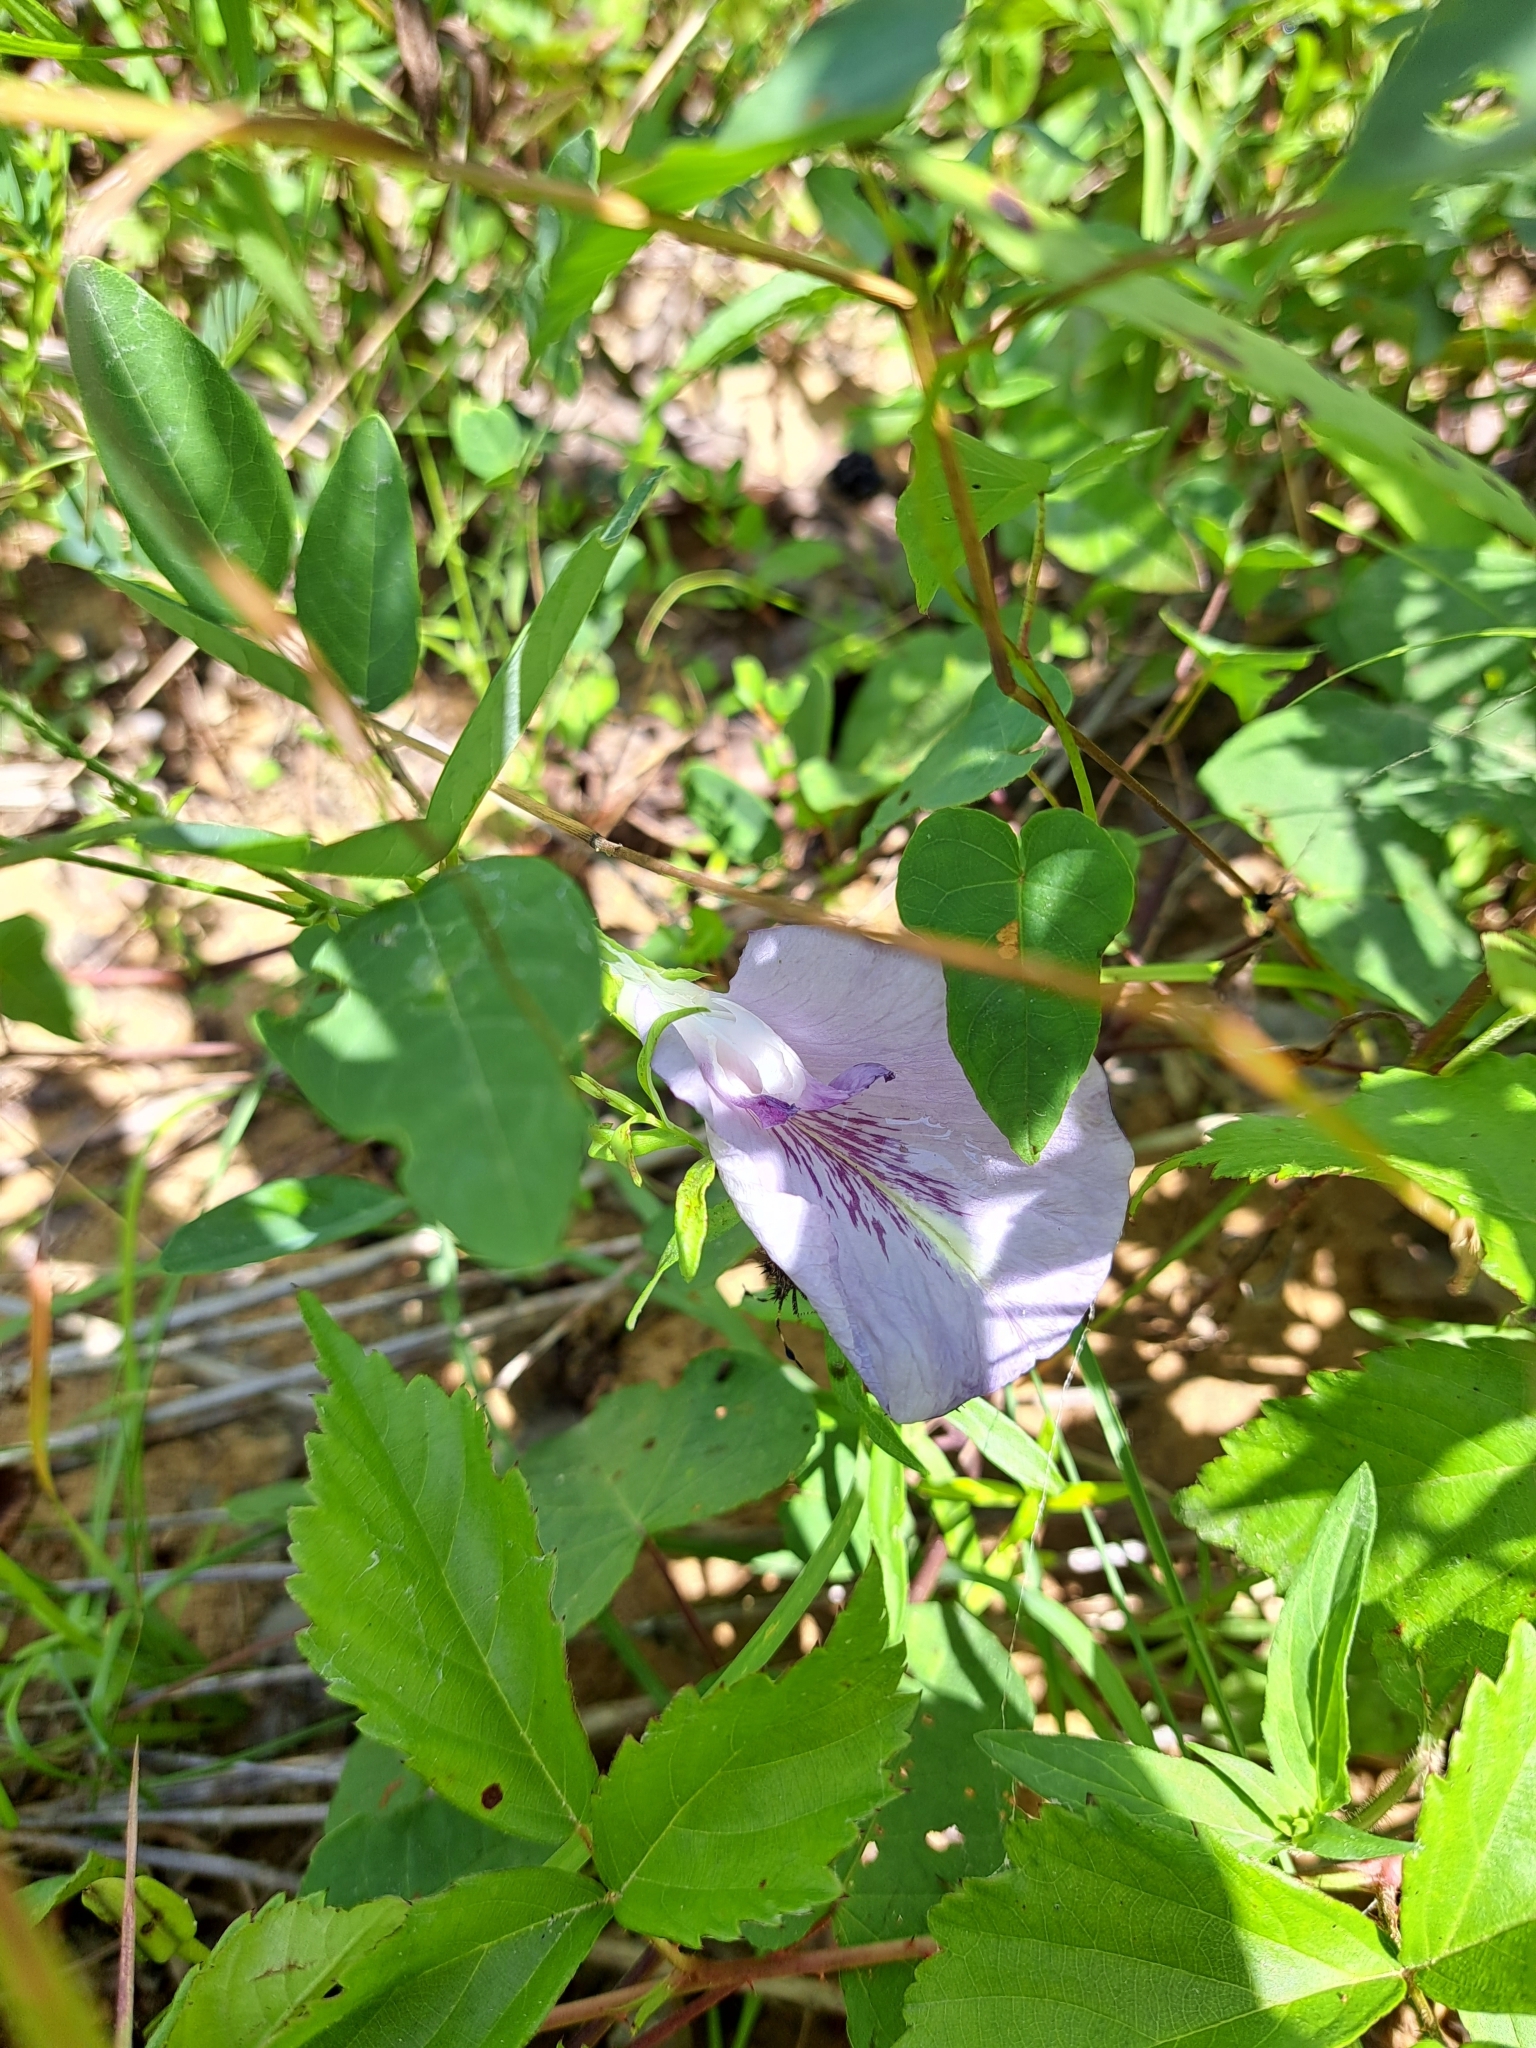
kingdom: Plantae
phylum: Tracheophyta
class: Magnoliopsida
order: Fabales
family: Fabaceae
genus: Clitoria
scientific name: Clitoria mariana
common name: Butterfly-pea
